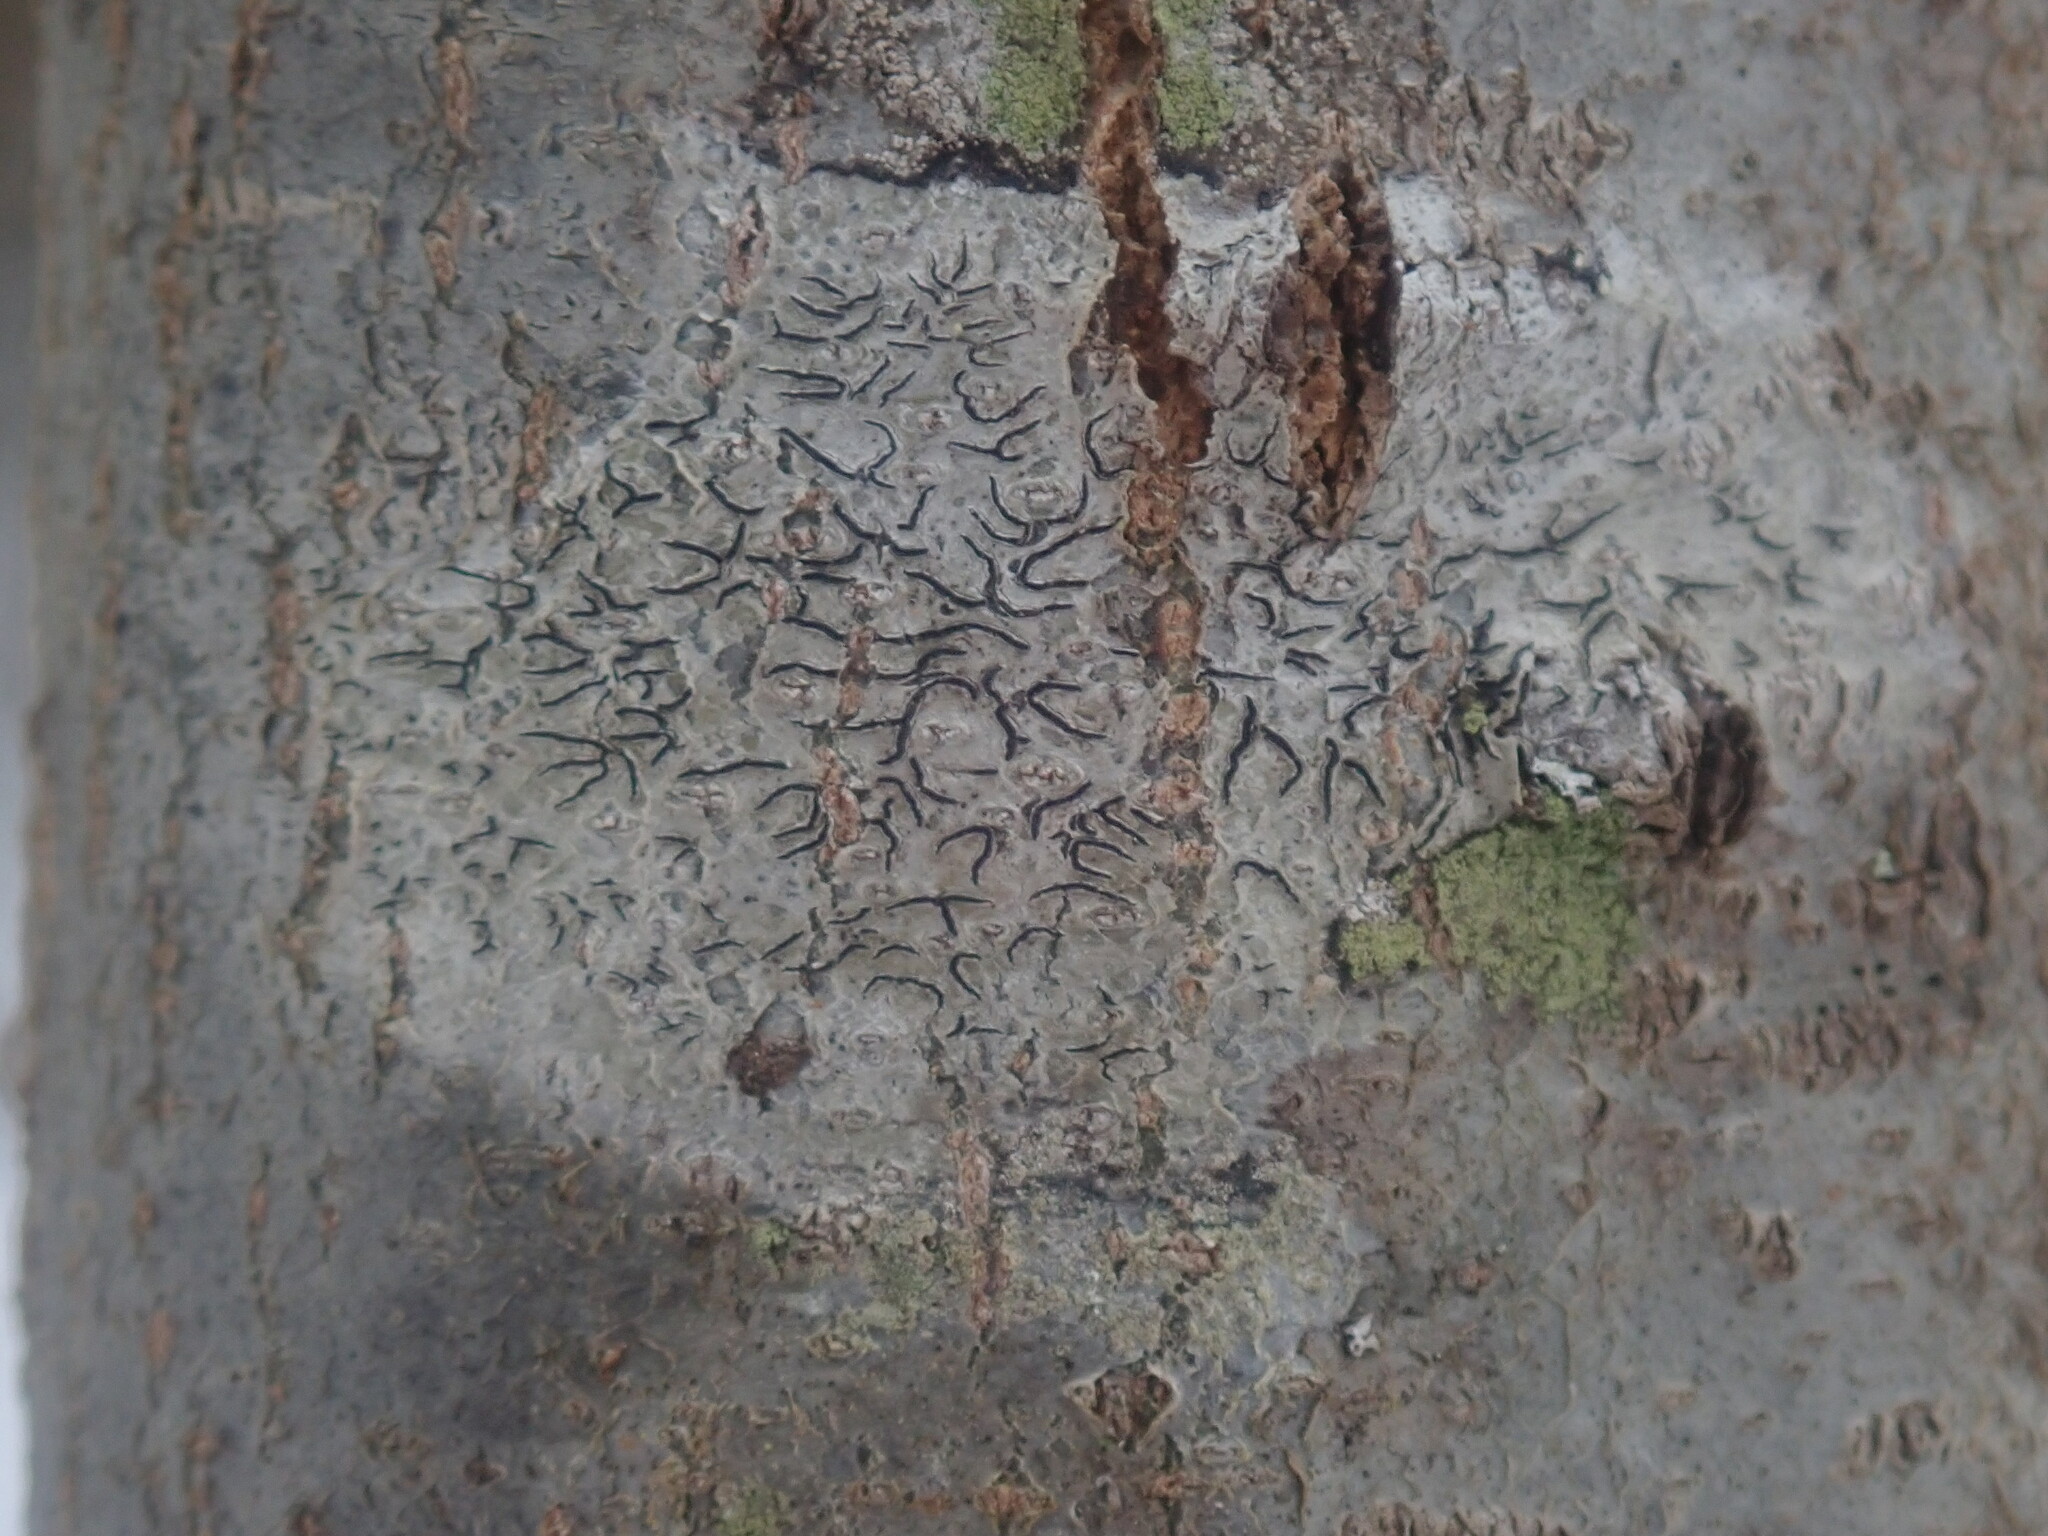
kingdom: Fungi
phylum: Ascomycota
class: Lecanoromycetes
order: Ostropales
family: Graphidaceae
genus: Graphis
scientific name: Graphis scripta
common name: Script lichen
